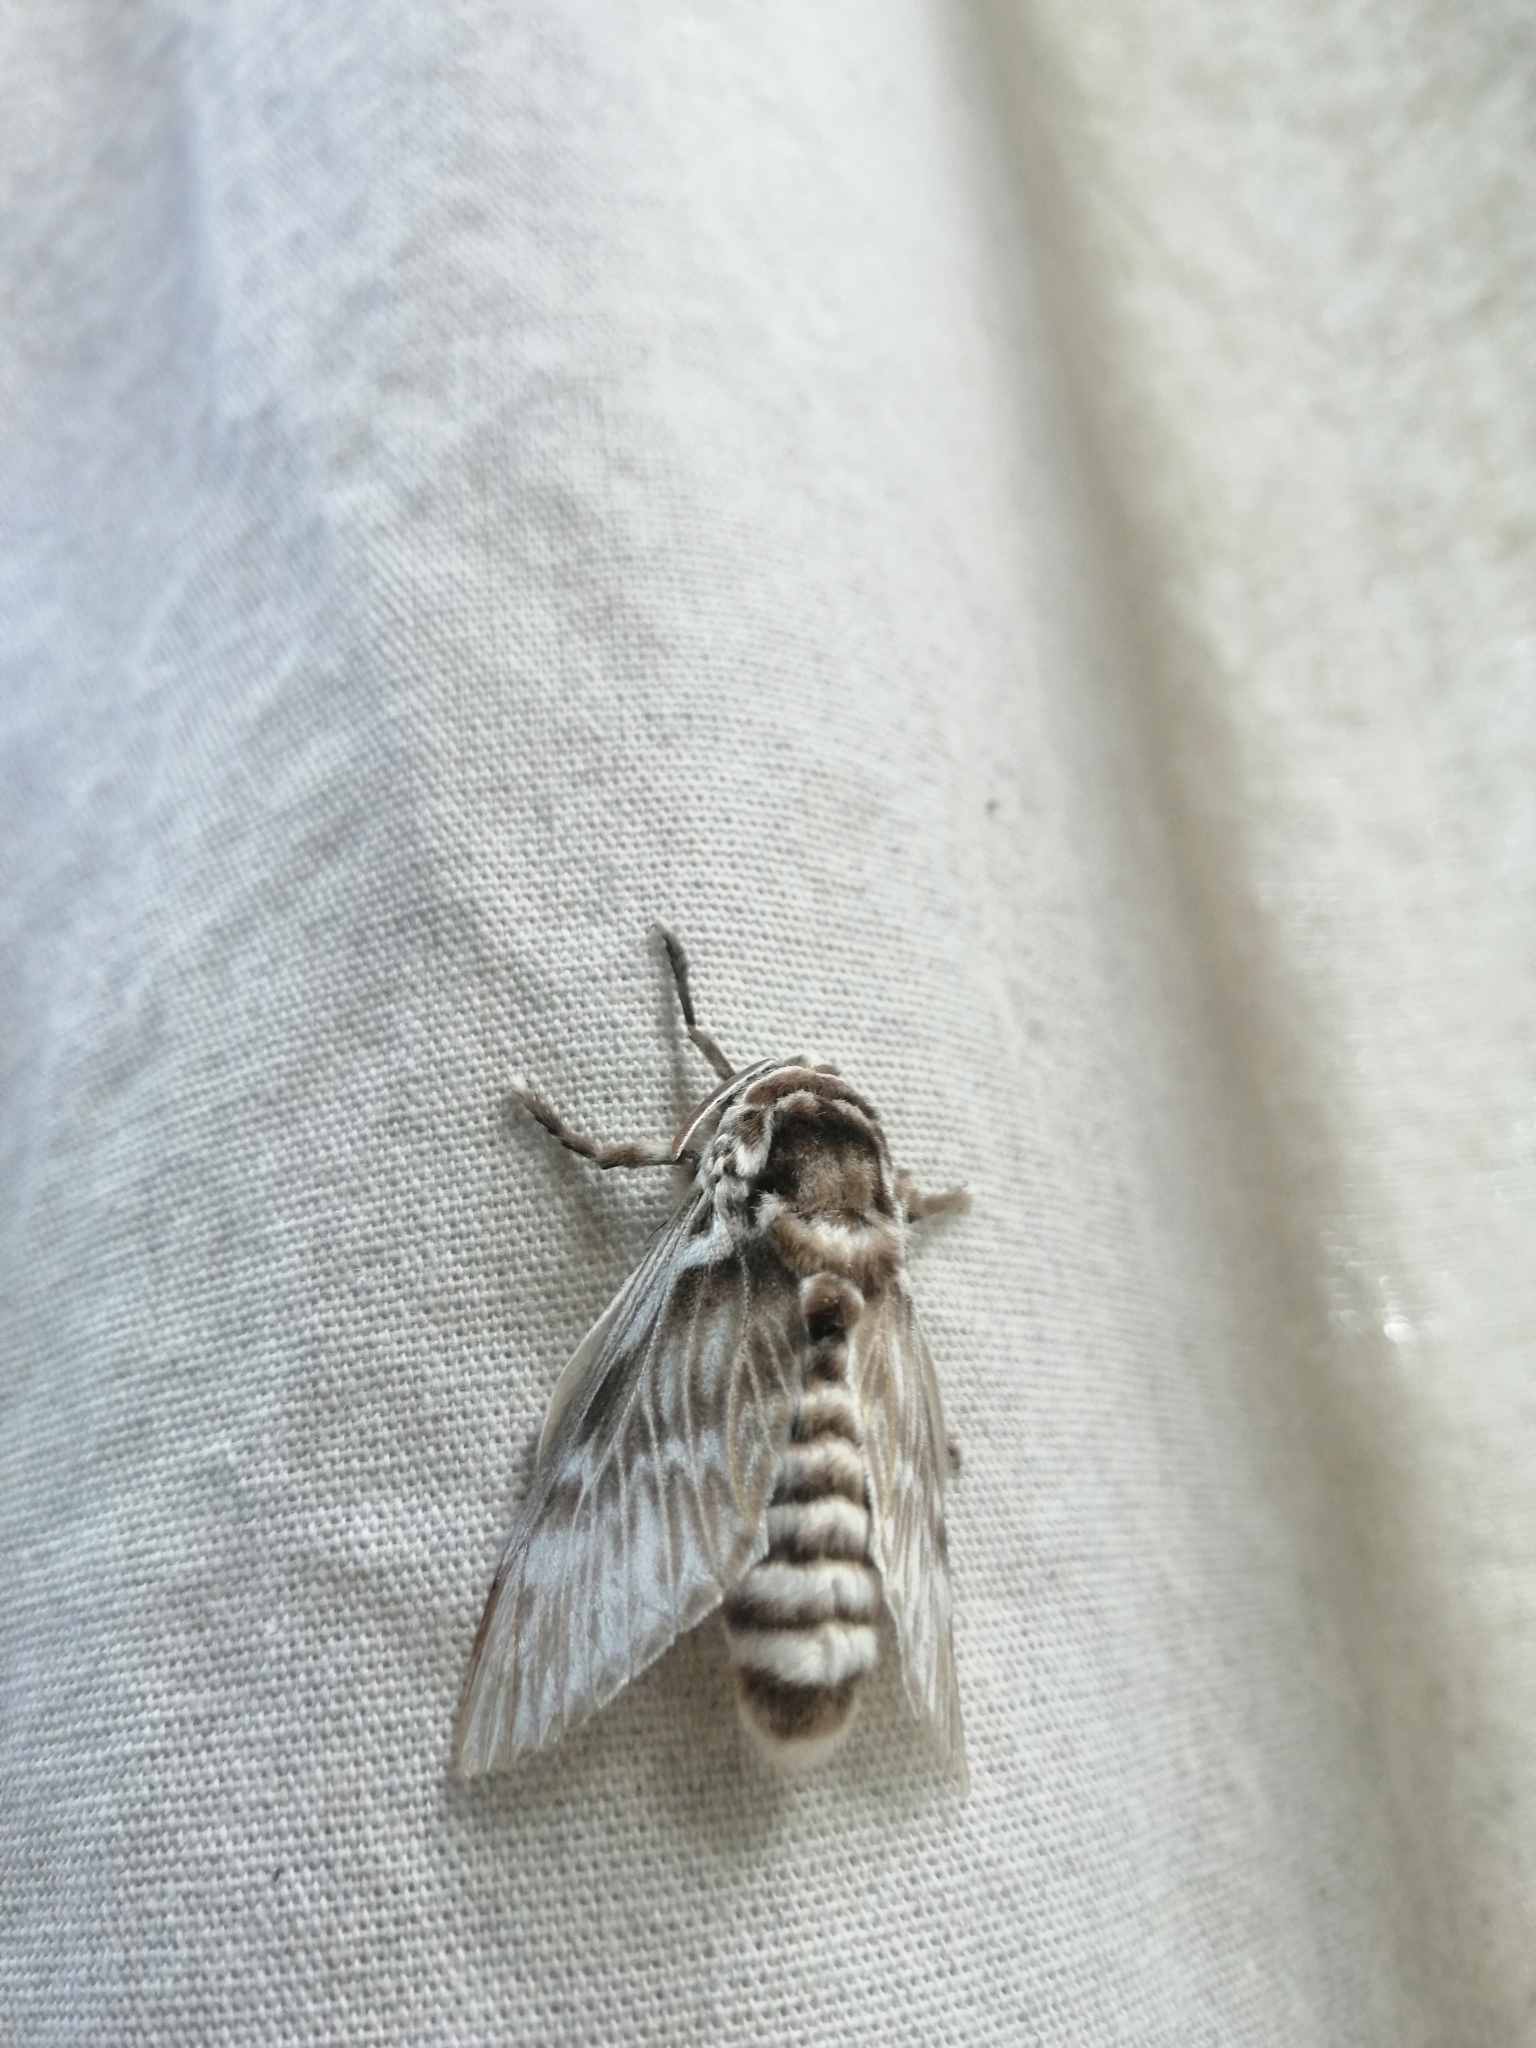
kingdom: Animalia
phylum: Arthropoda
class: Insecta
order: Lepidoptera
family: Megalopygidae
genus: Podalia
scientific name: Podalia orsilochus
